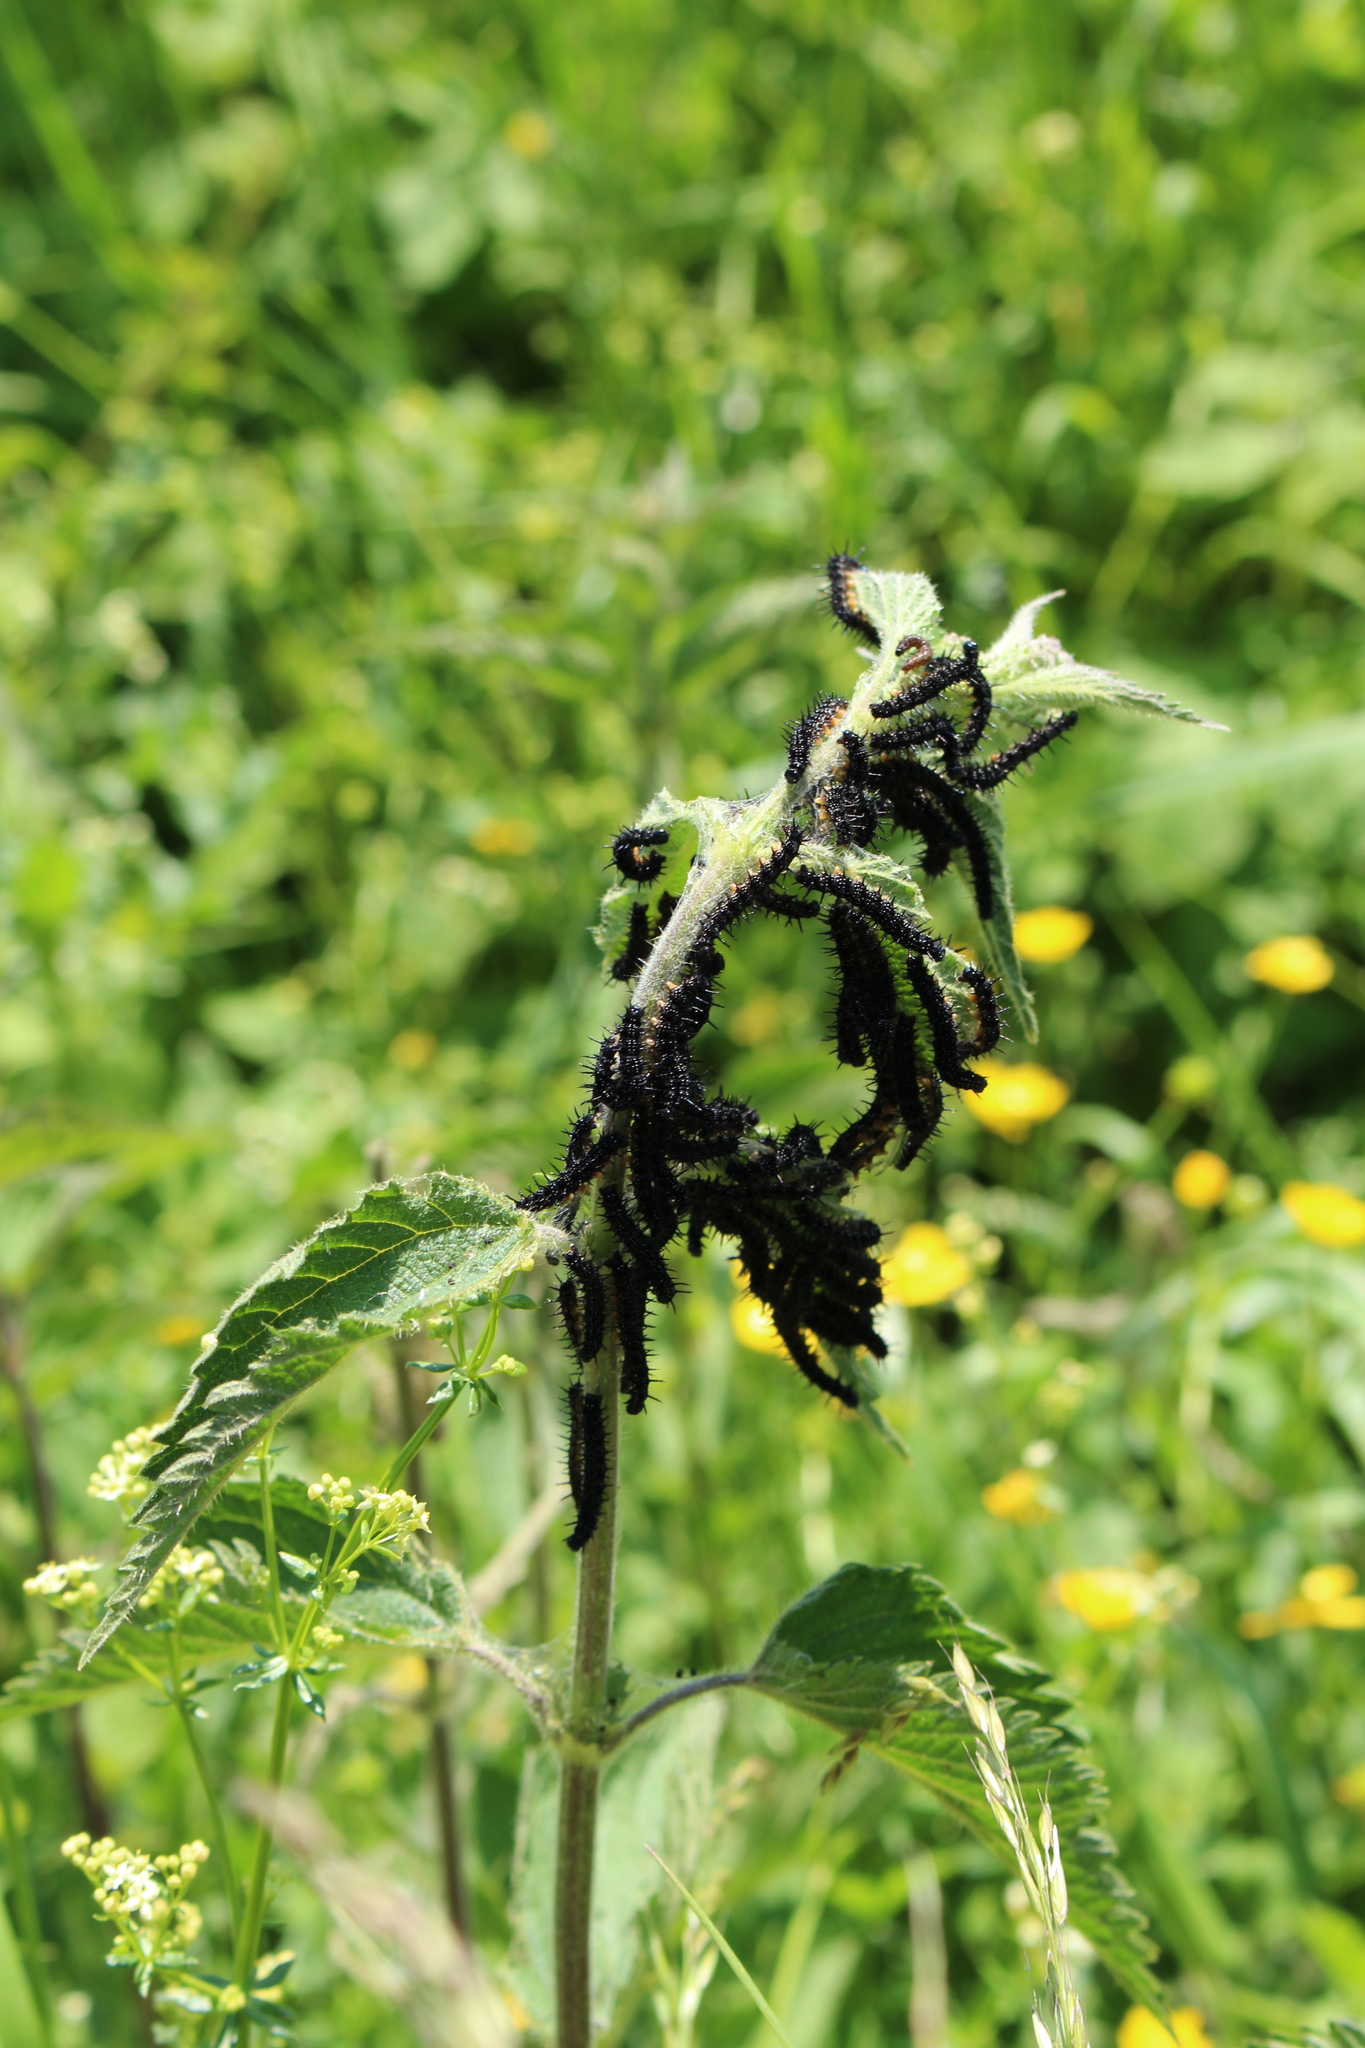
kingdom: Animalia
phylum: Arthropoda
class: Insecta
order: Lepidoptera
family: Nymphalidae
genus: Aglais
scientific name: Aglais io
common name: Peacock
